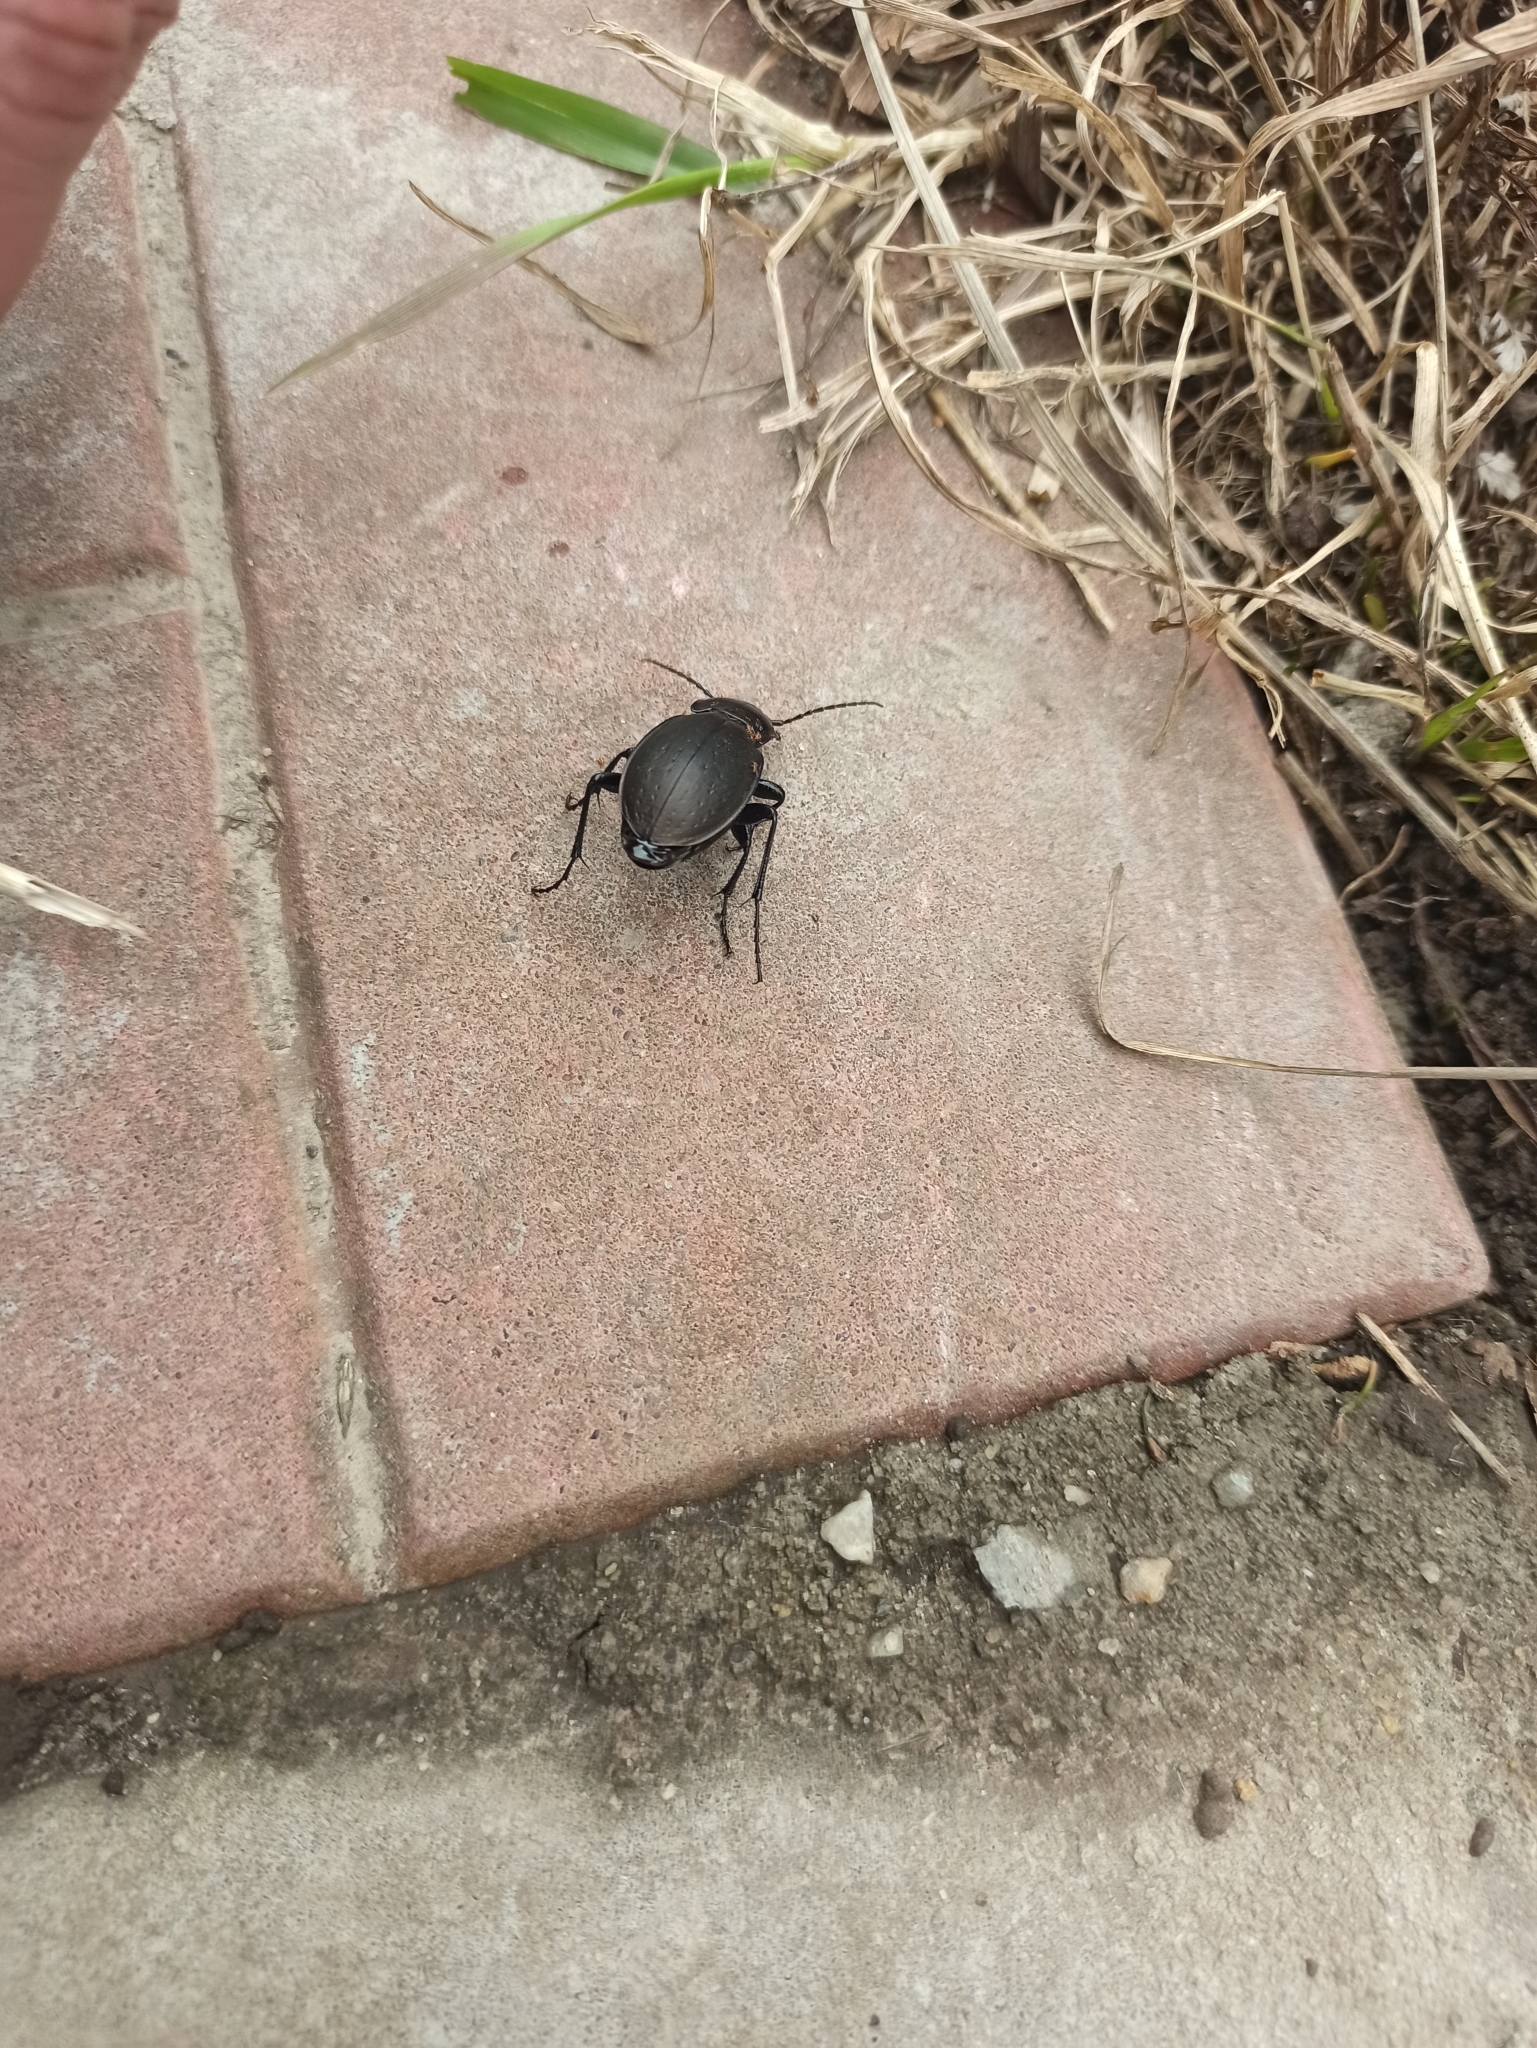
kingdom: Animalia
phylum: Arthropoda
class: Insecta
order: Coleoptera
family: Carabidae
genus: Carabus
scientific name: Carabus nemoralis
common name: European ground beetle
